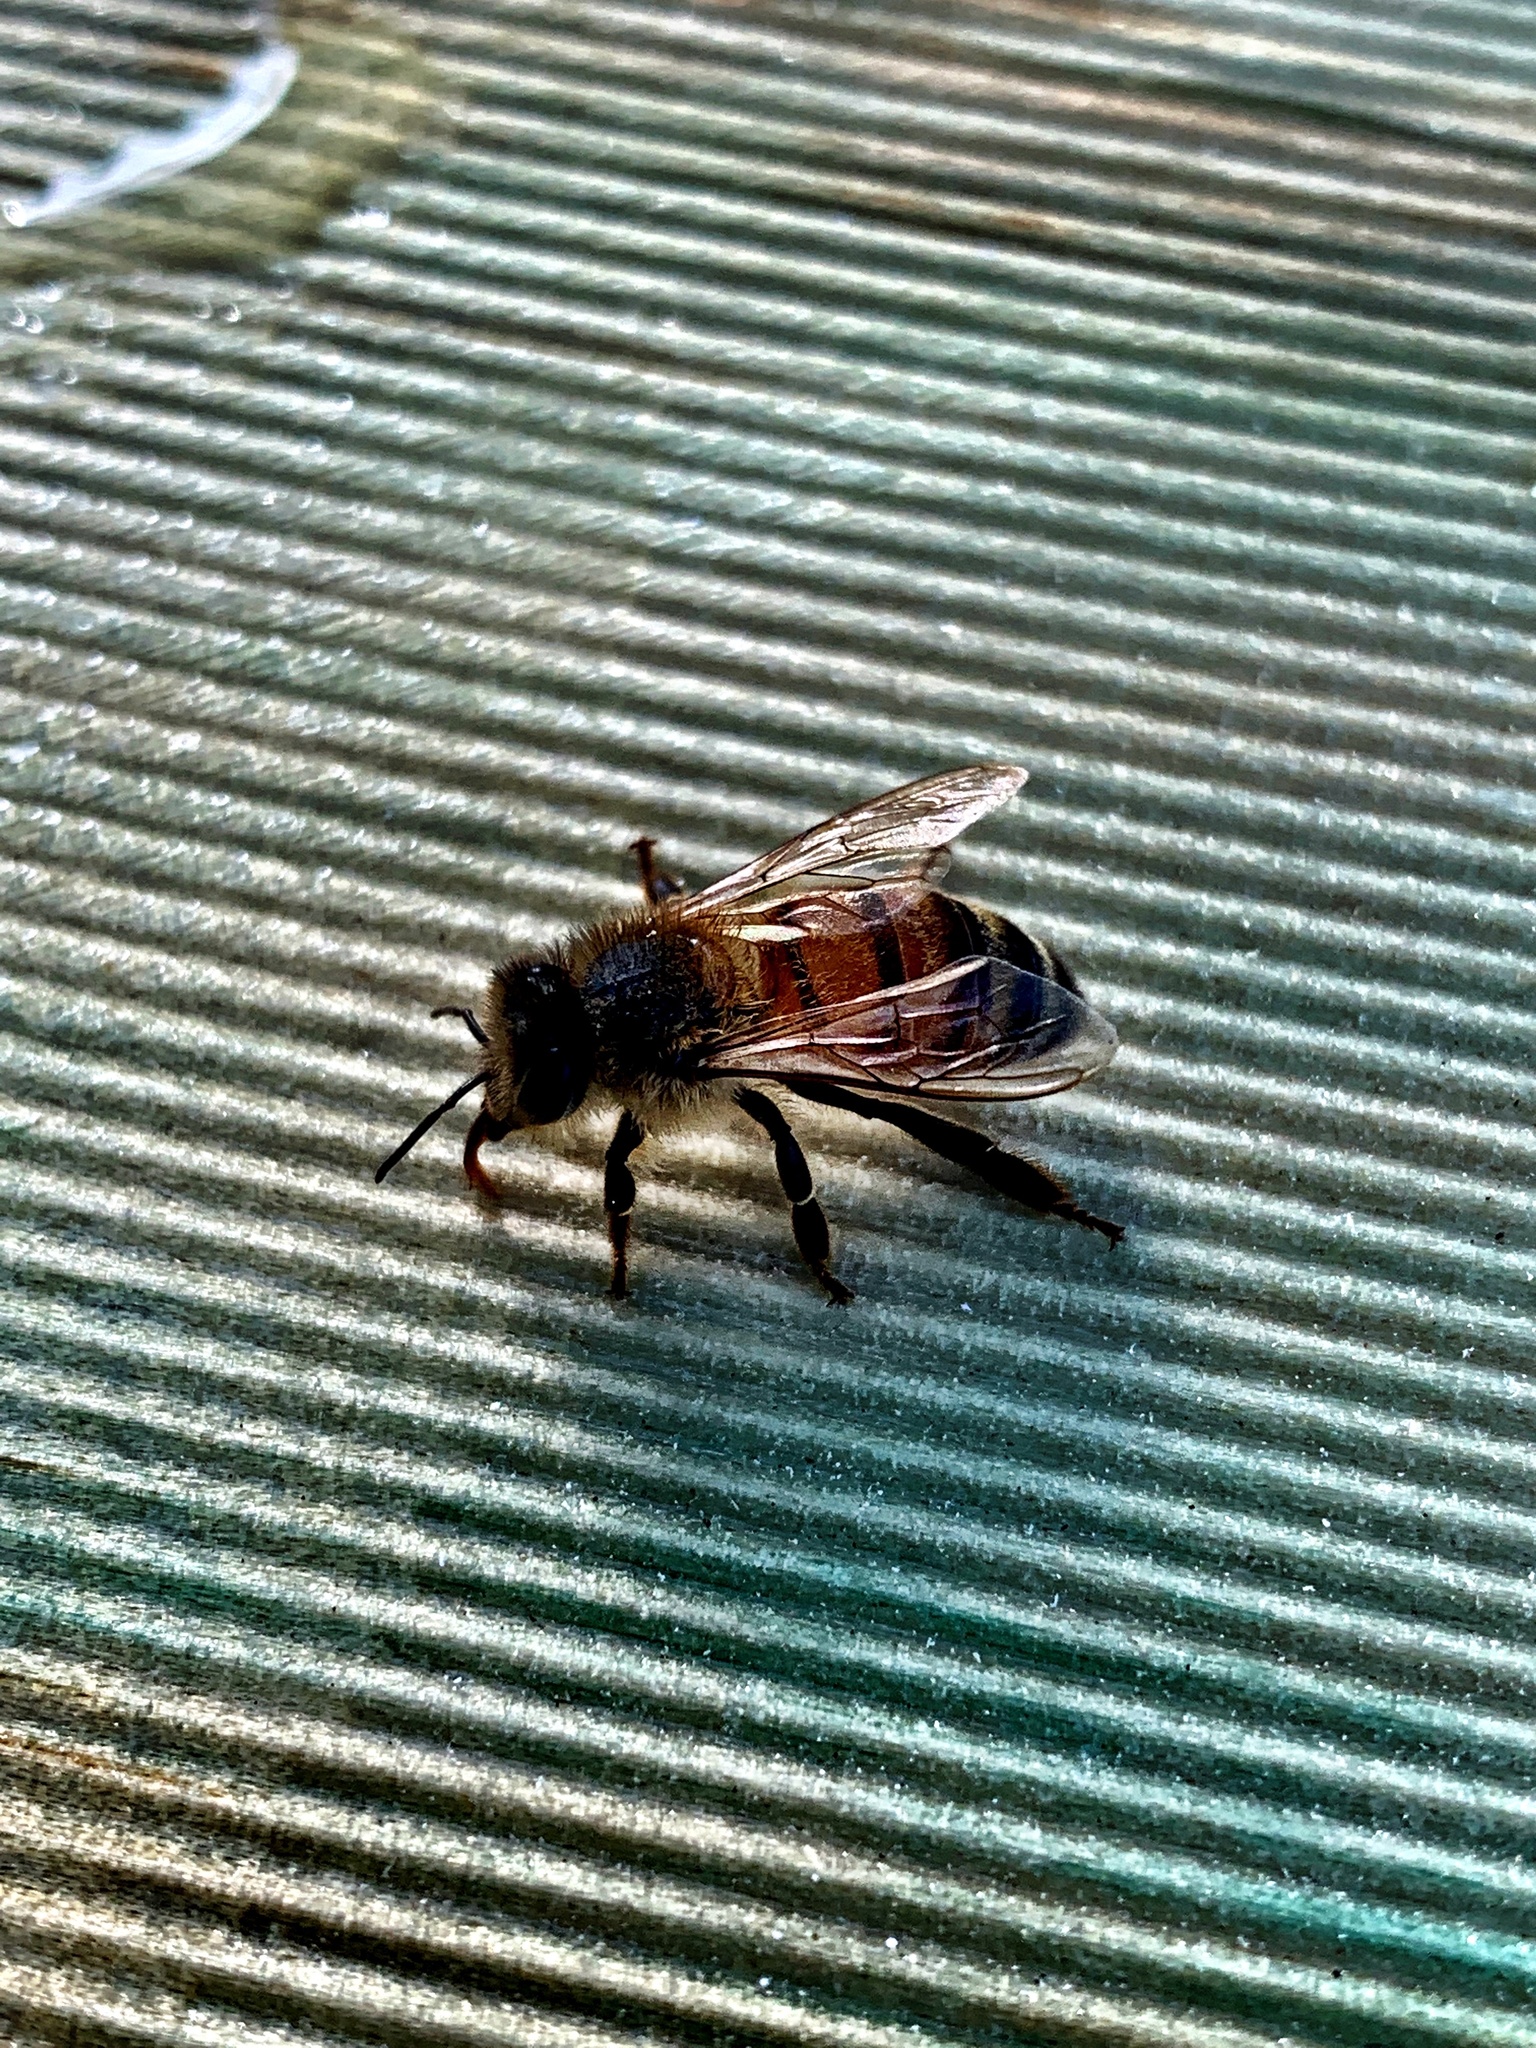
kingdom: Animalia
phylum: Arthropoda
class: Insecta
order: Hymenoptera
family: Apidae
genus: Apis
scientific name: Apis mellifera
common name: Honey bee
